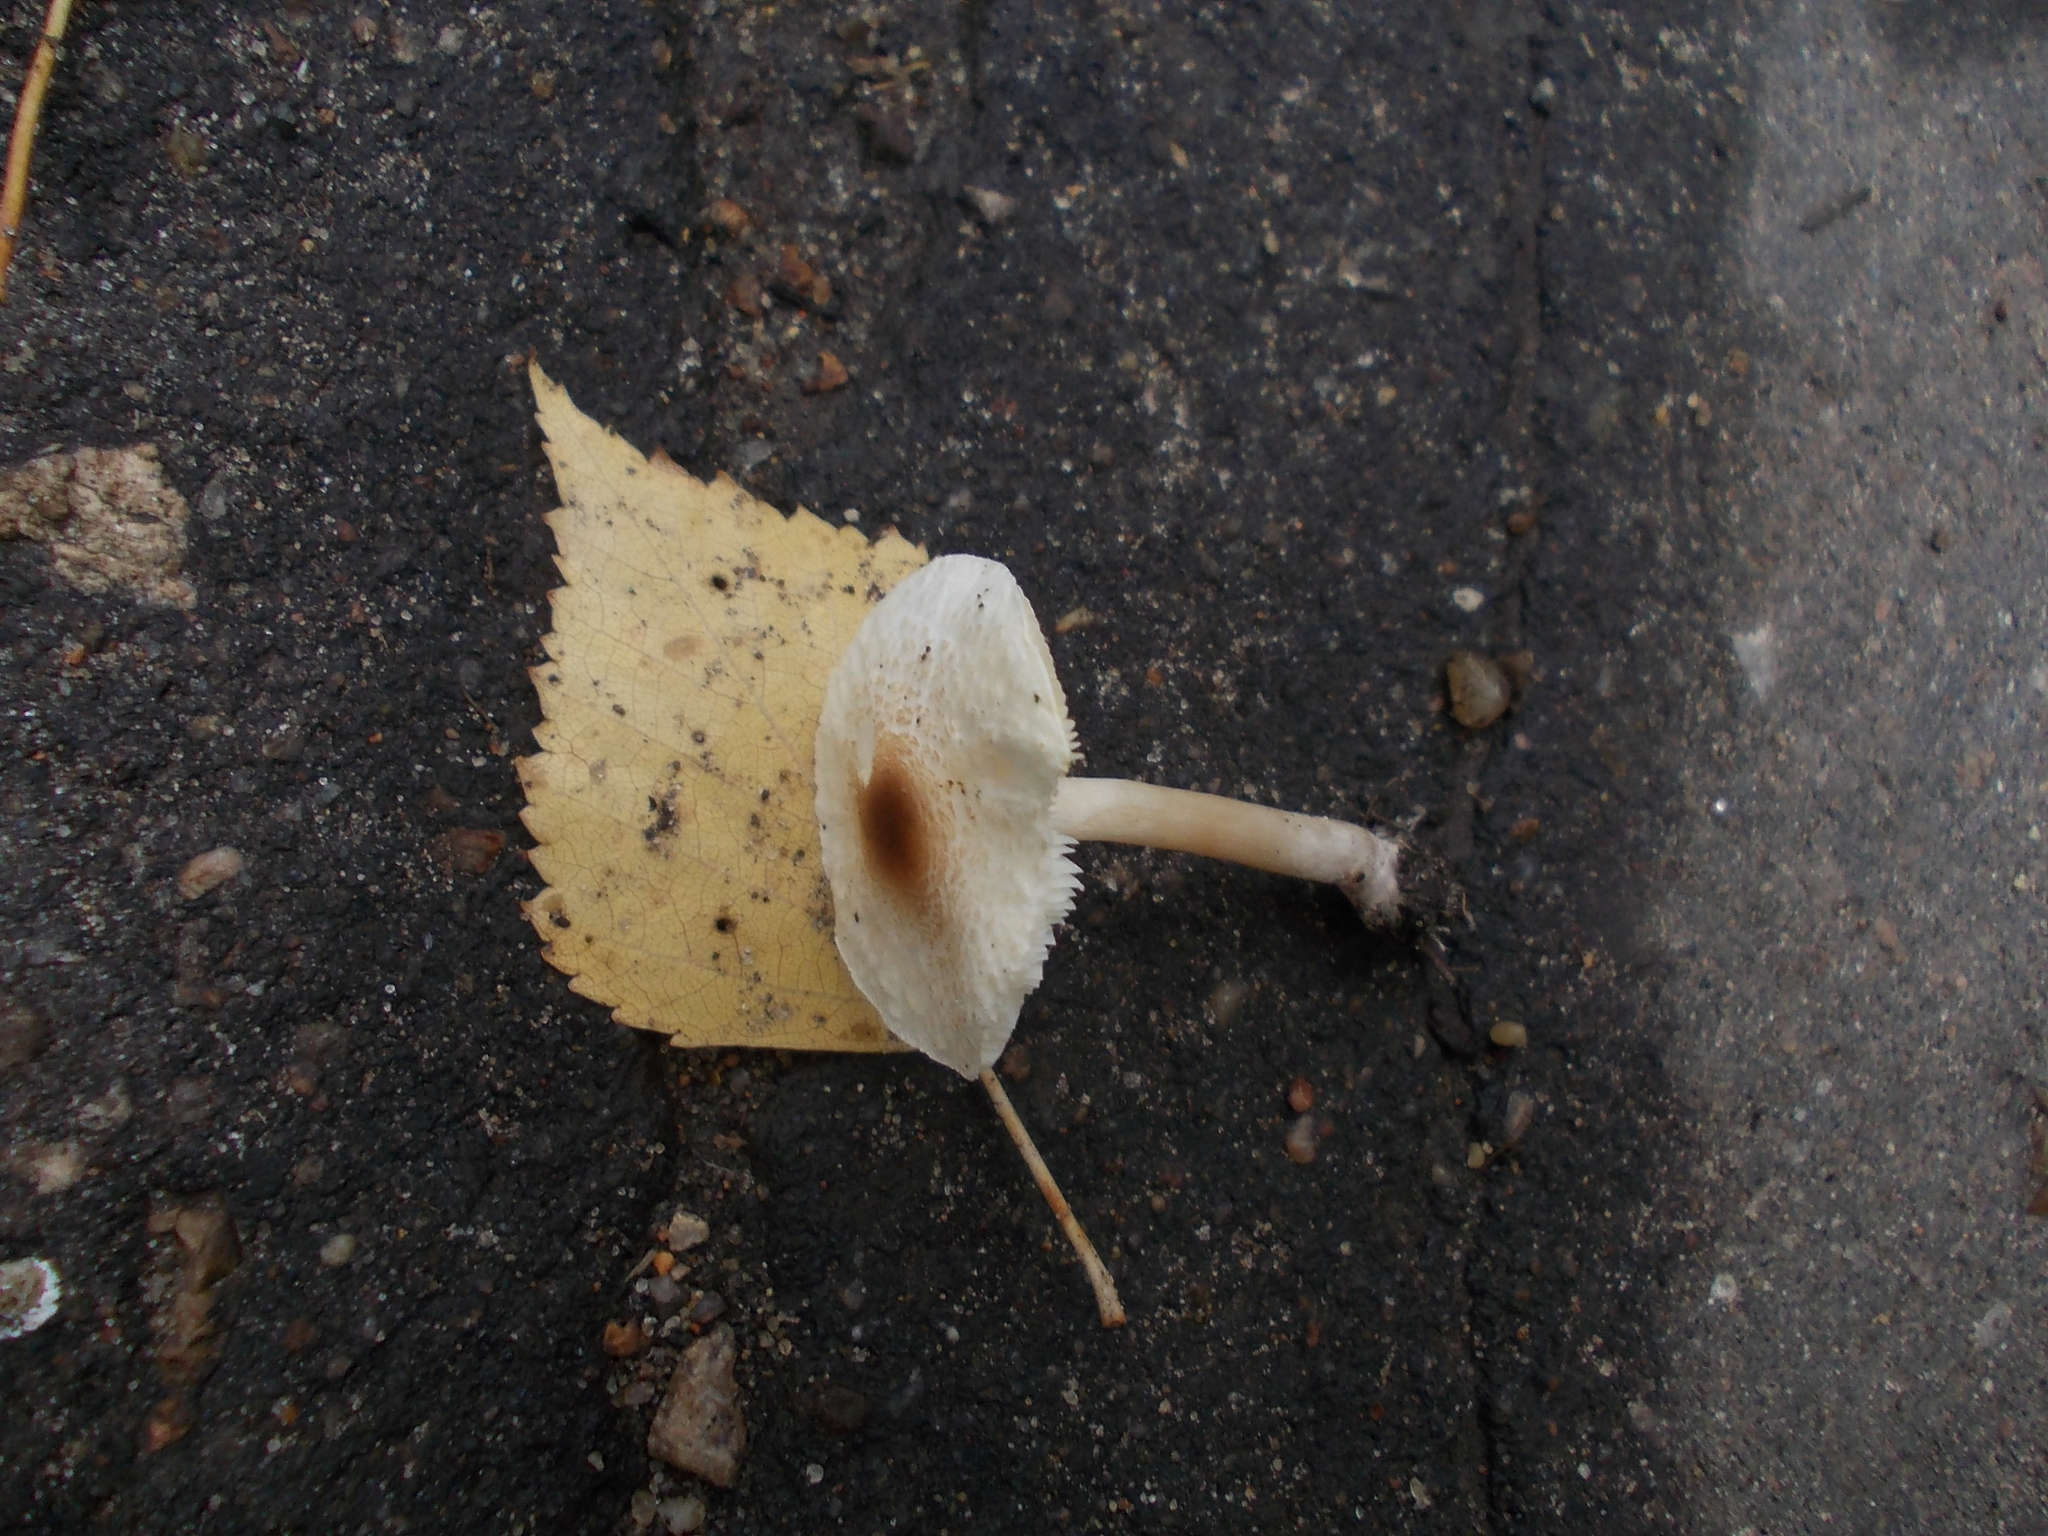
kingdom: Fungi
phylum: Basidiomycota
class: Agaricomycetes
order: Agaricales
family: Agaricaceae
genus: Lepiota
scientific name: Lepiota cristata
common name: Stinking dapperling
